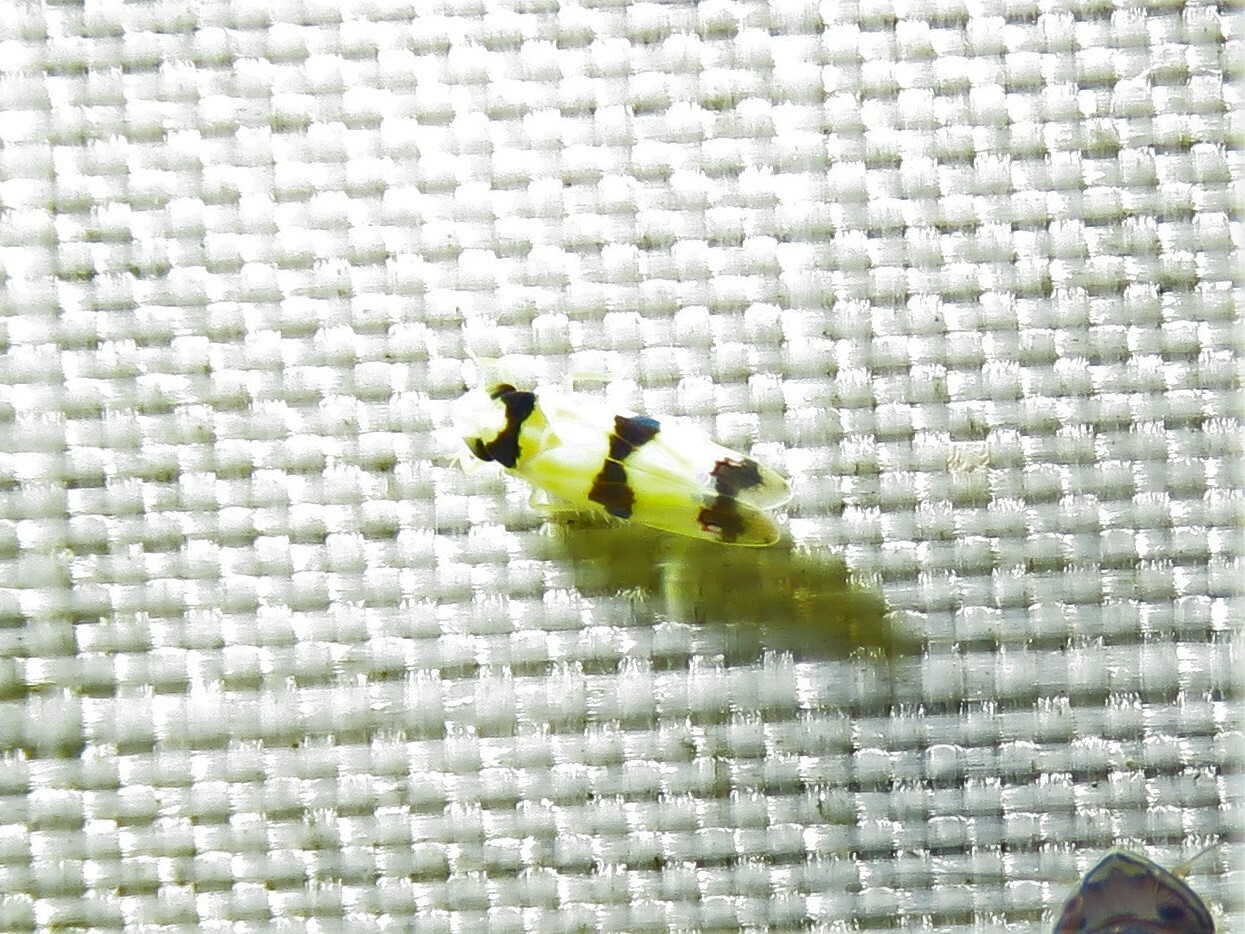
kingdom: Animalia
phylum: Arthropoda
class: Insecta
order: Hemiptera
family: Cicadellidae
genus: Erythroneura
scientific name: Erythroneura cymbium
